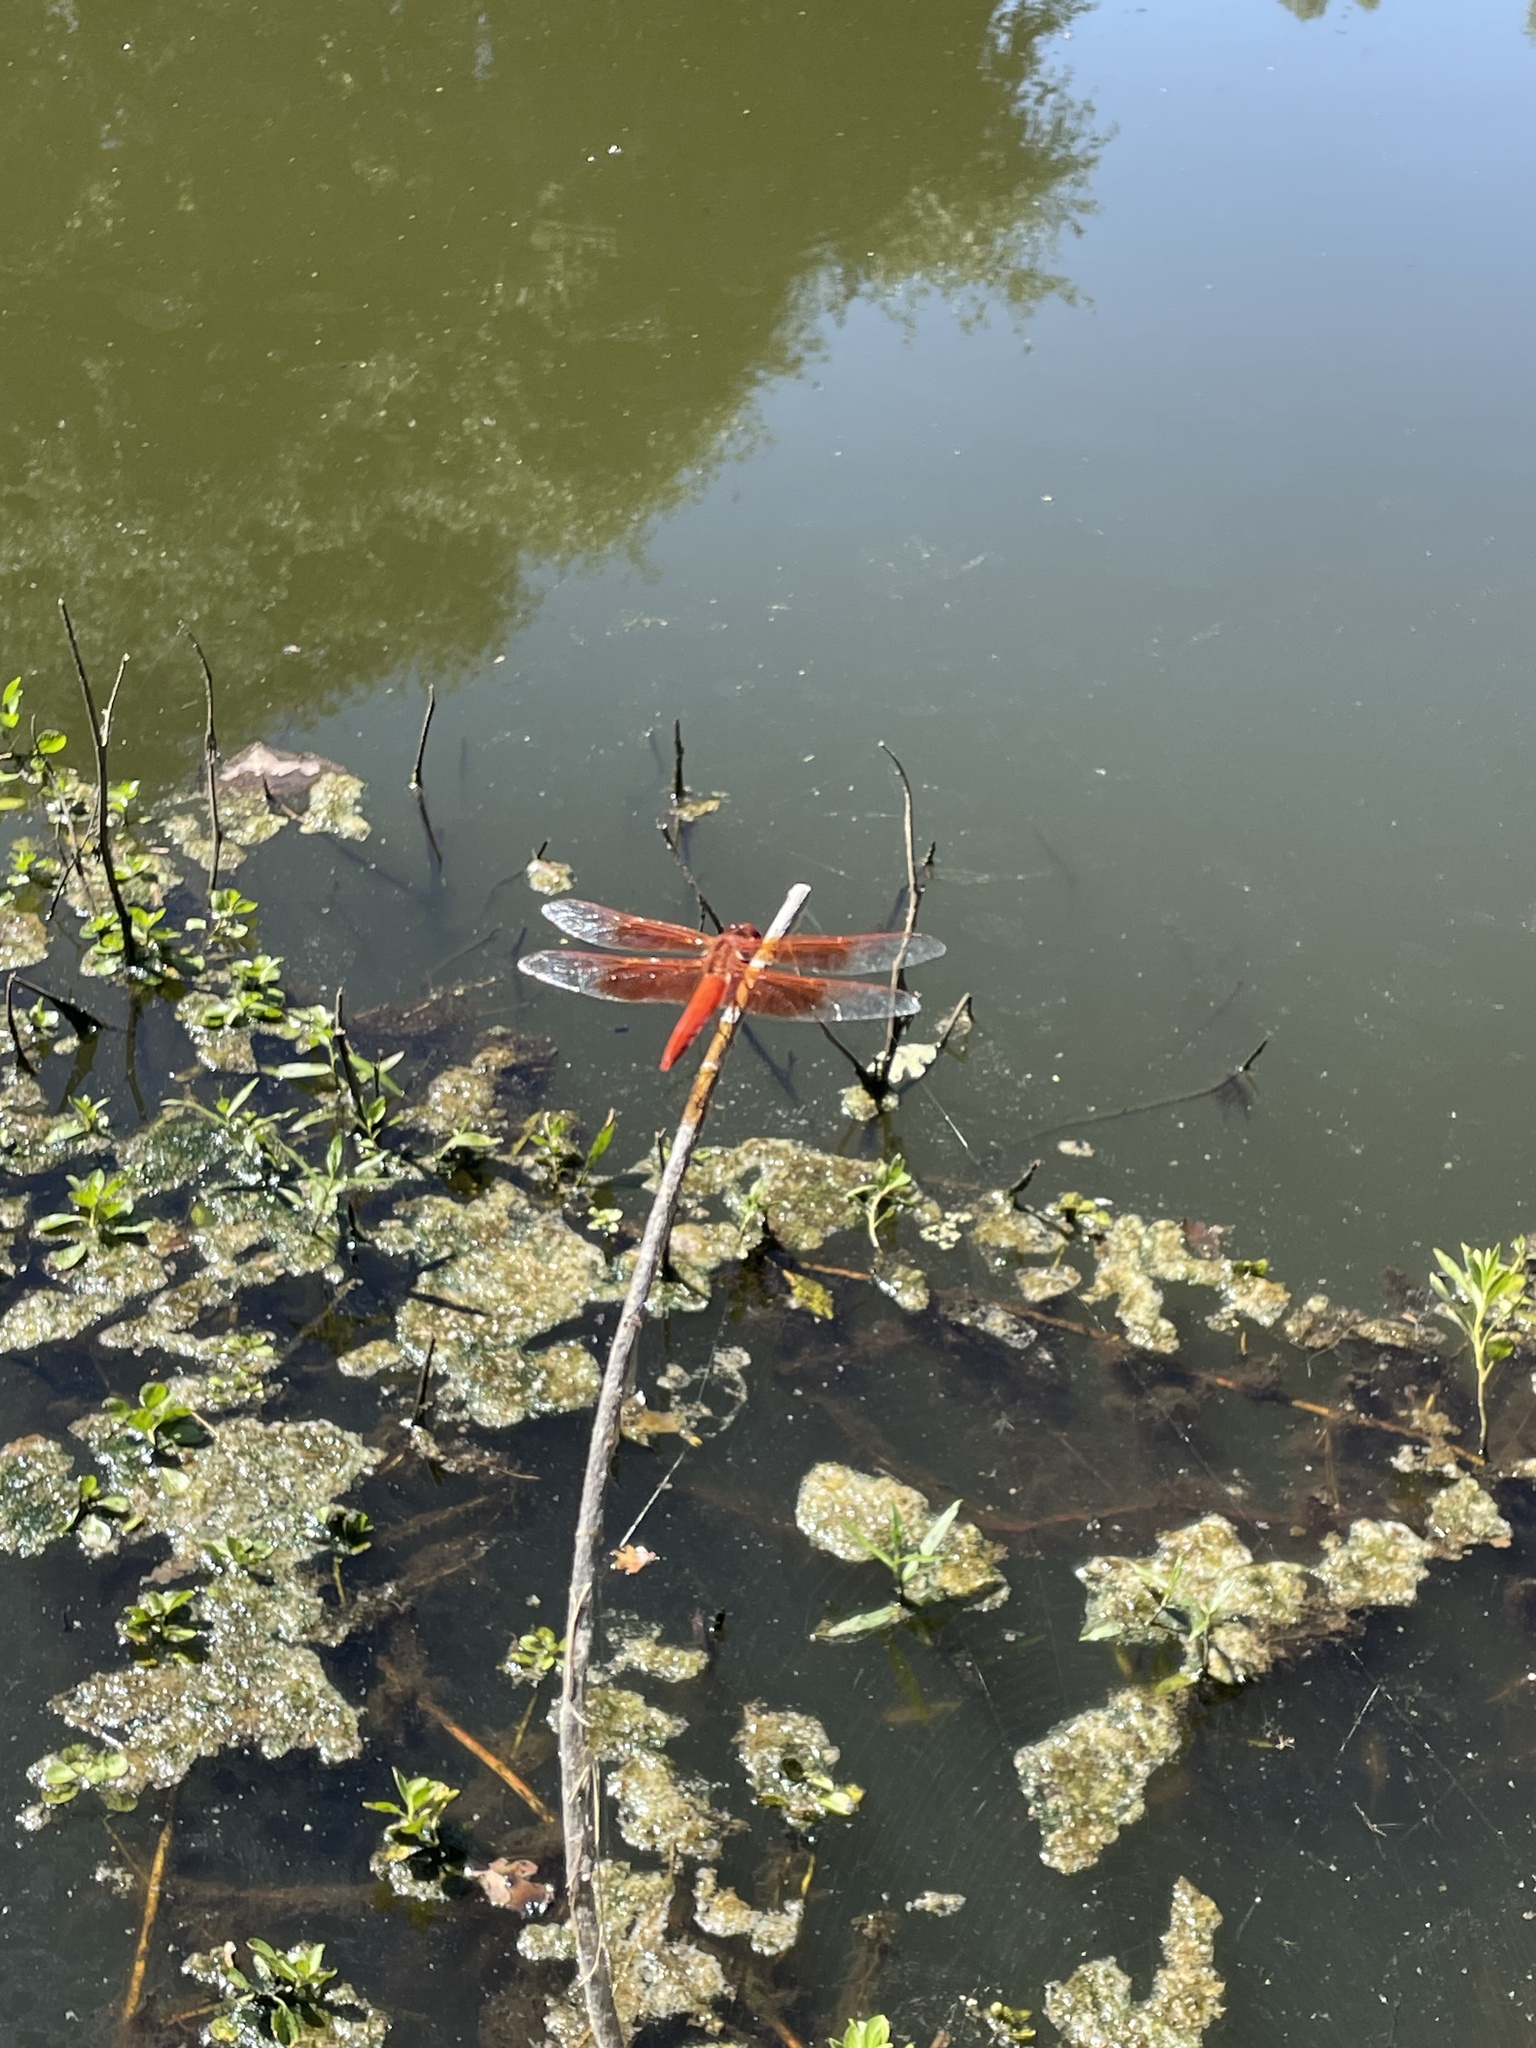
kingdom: Animalia
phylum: Arthropoda
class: Insecta
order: Odonata
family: Libellulidae
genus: Libellula
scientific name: Libellula saturata
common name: Flame skimmer
